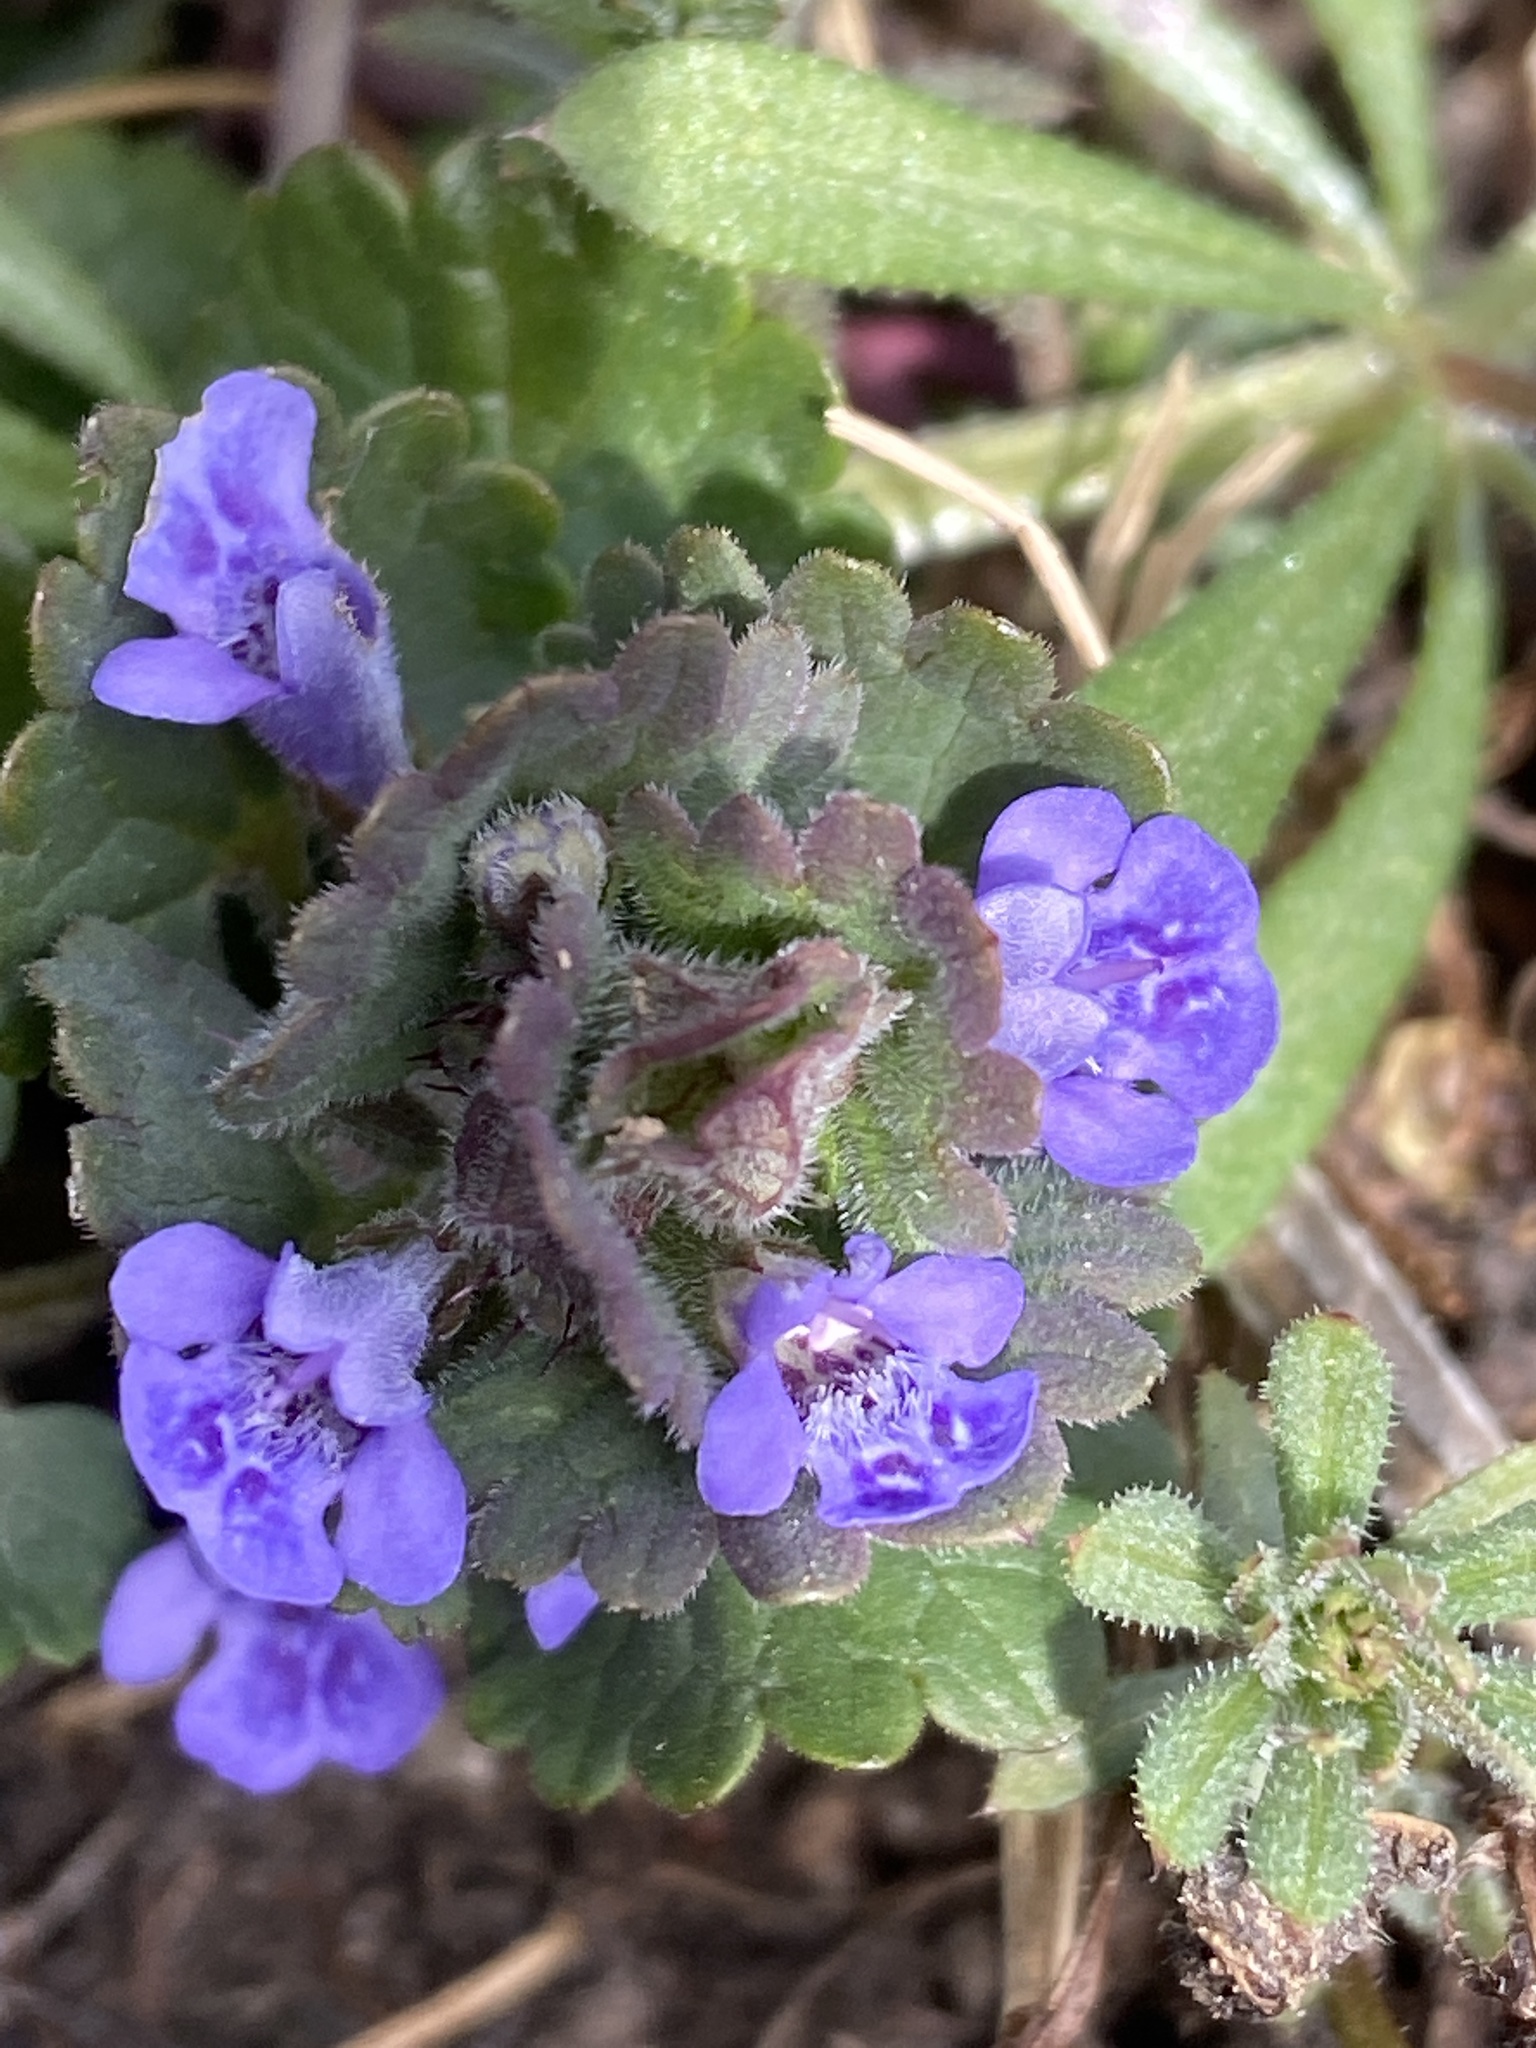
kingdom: Plantae
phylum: Tracheophyta
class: Magnoliopsida
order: Lamiales
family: Lamiaceae
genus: Glechoma
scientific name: Glechoma hederacea
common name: Ground ivy
